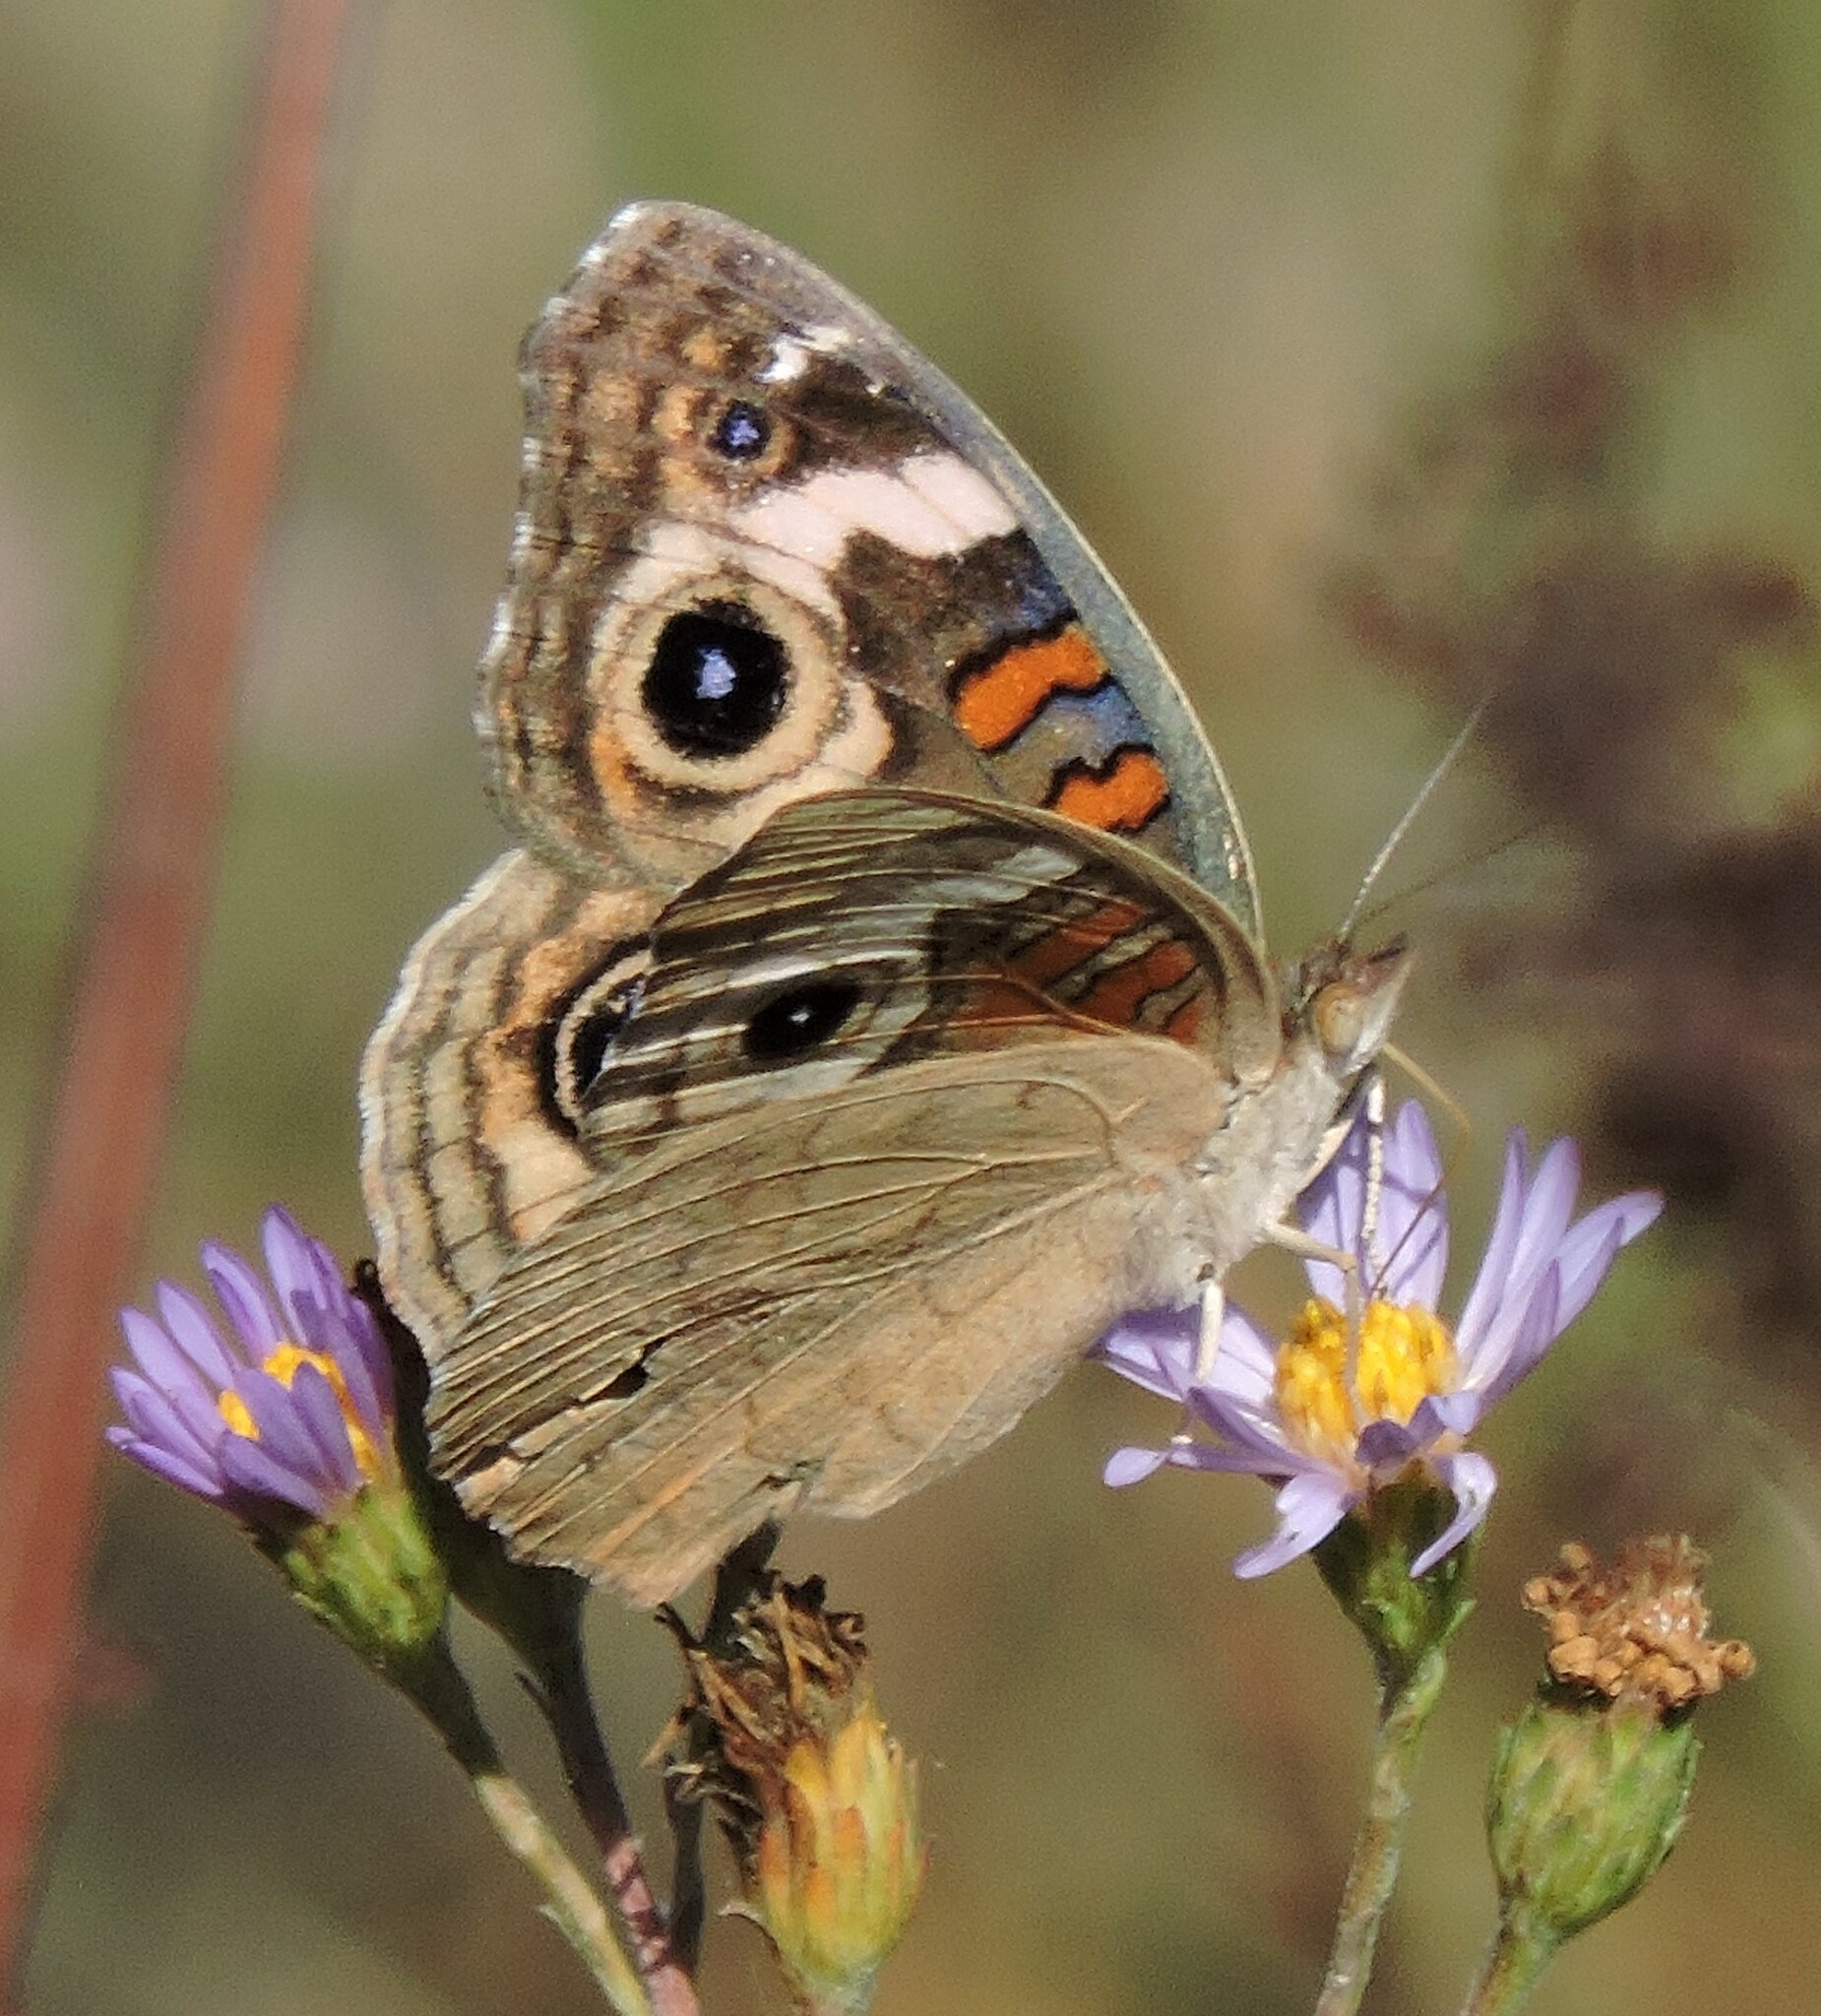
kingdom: Animalia
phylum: Arthropoda
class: Insecta
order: Lepidoptera
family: Nymphalidae
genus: Junonia
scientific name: Junonia grisea
